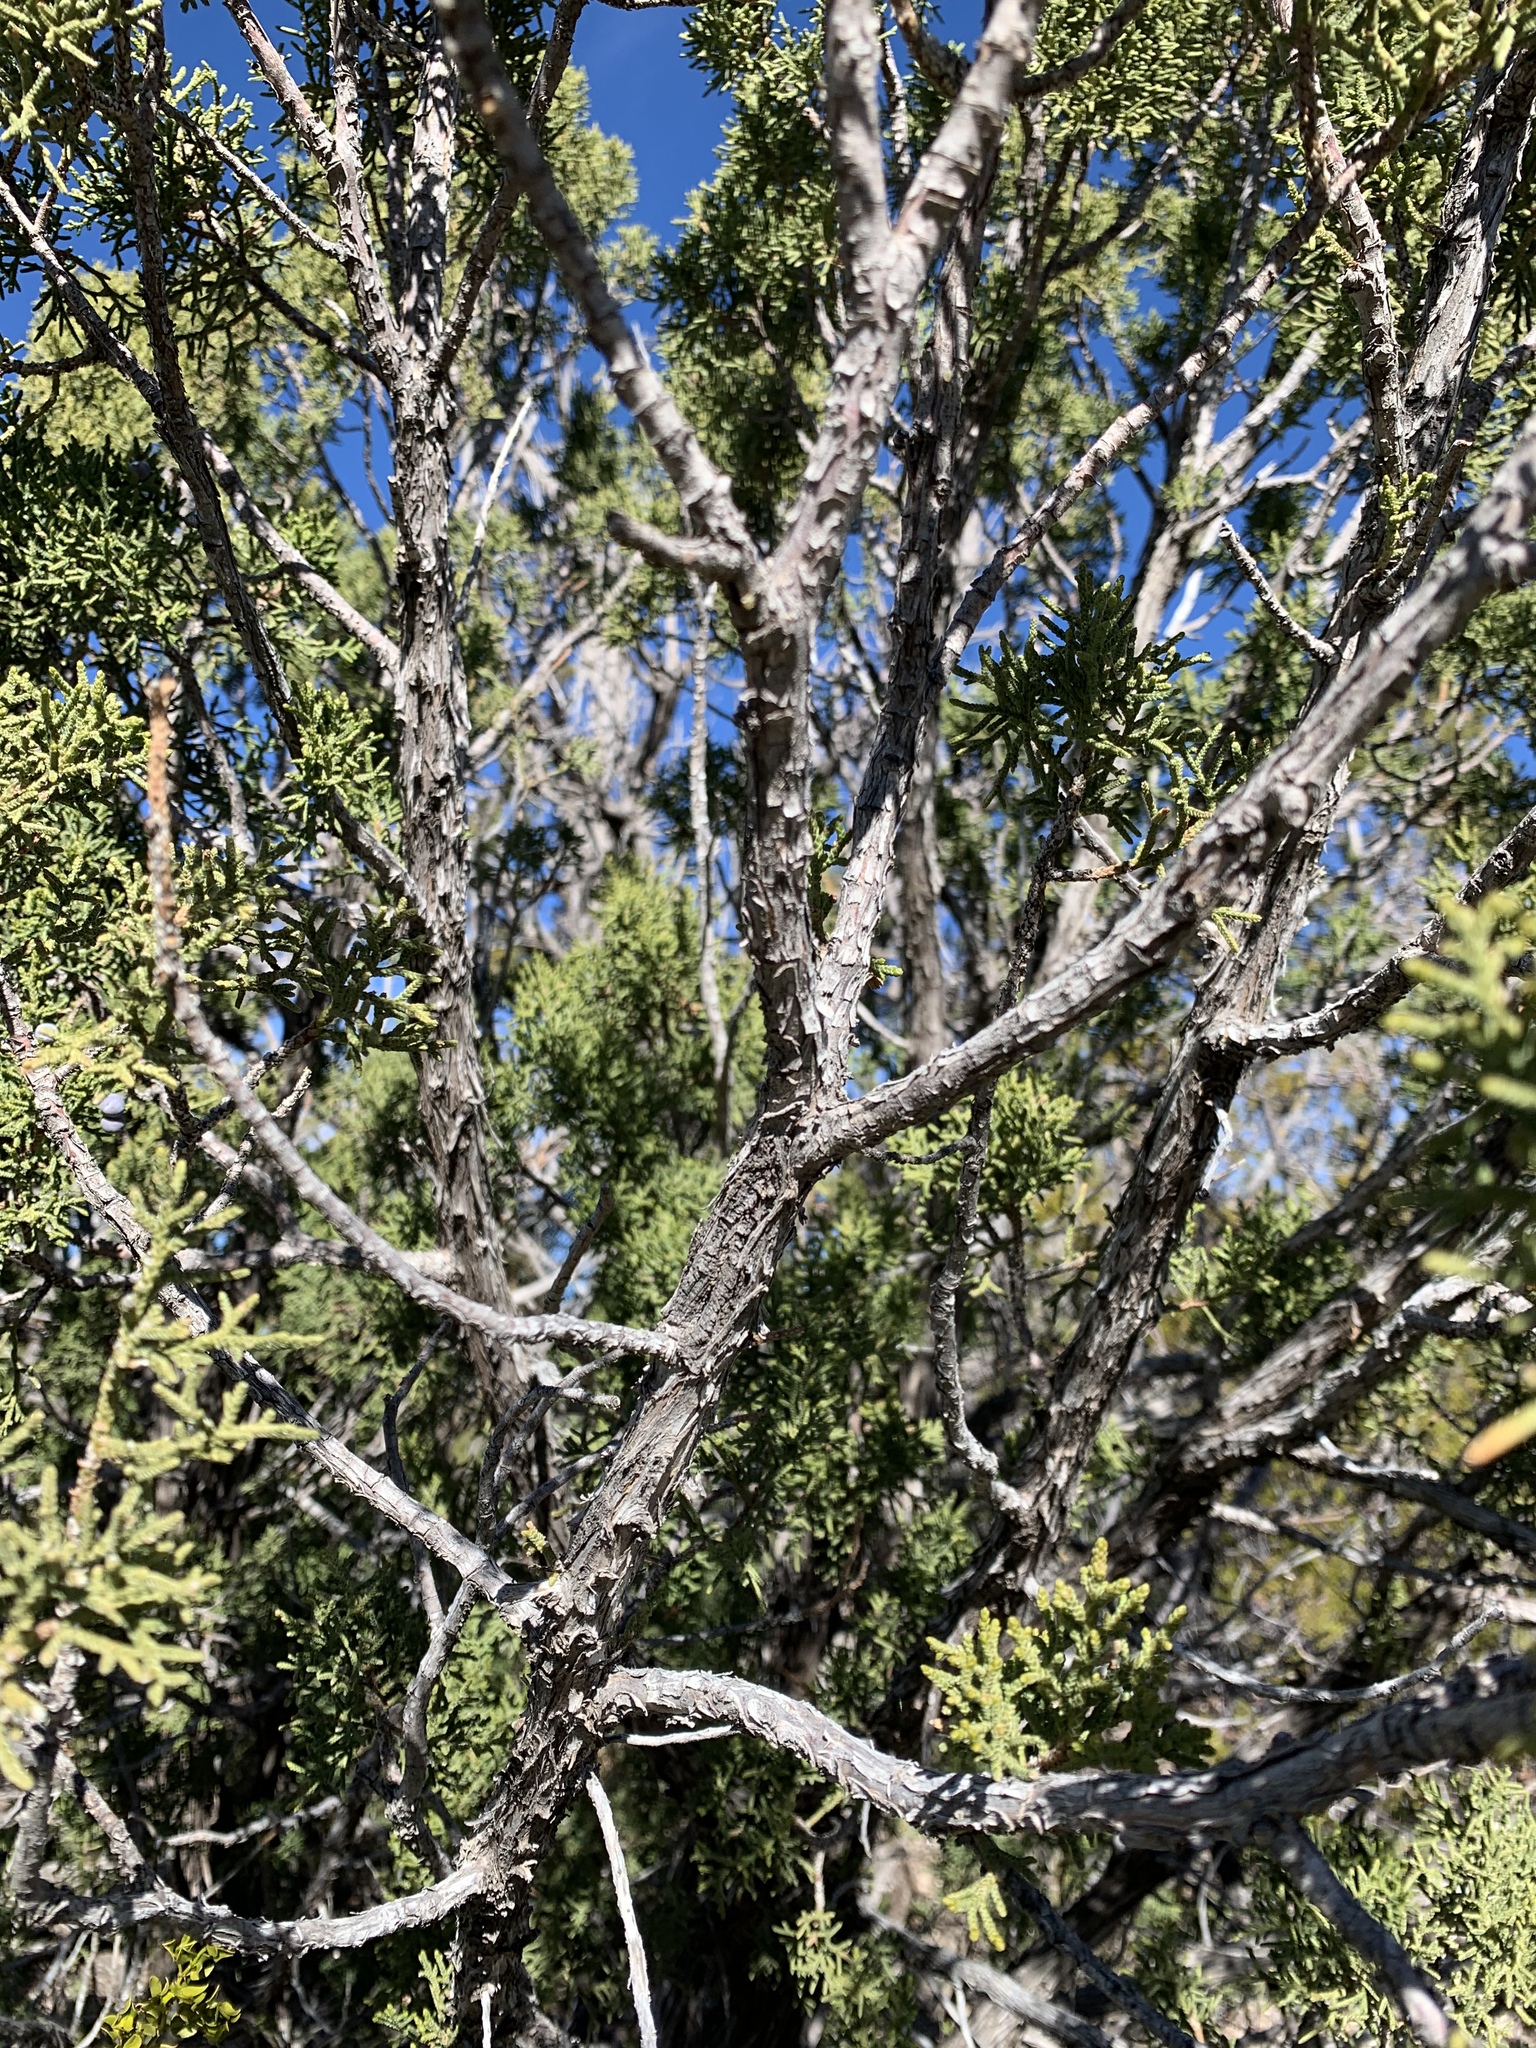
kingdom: Plantae
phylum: Tracheophyta
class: Pinopsida
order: Pinales
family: Cupressaceae
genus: Juniperus
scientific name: Juniperus monosperma
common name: One-seed juniper
